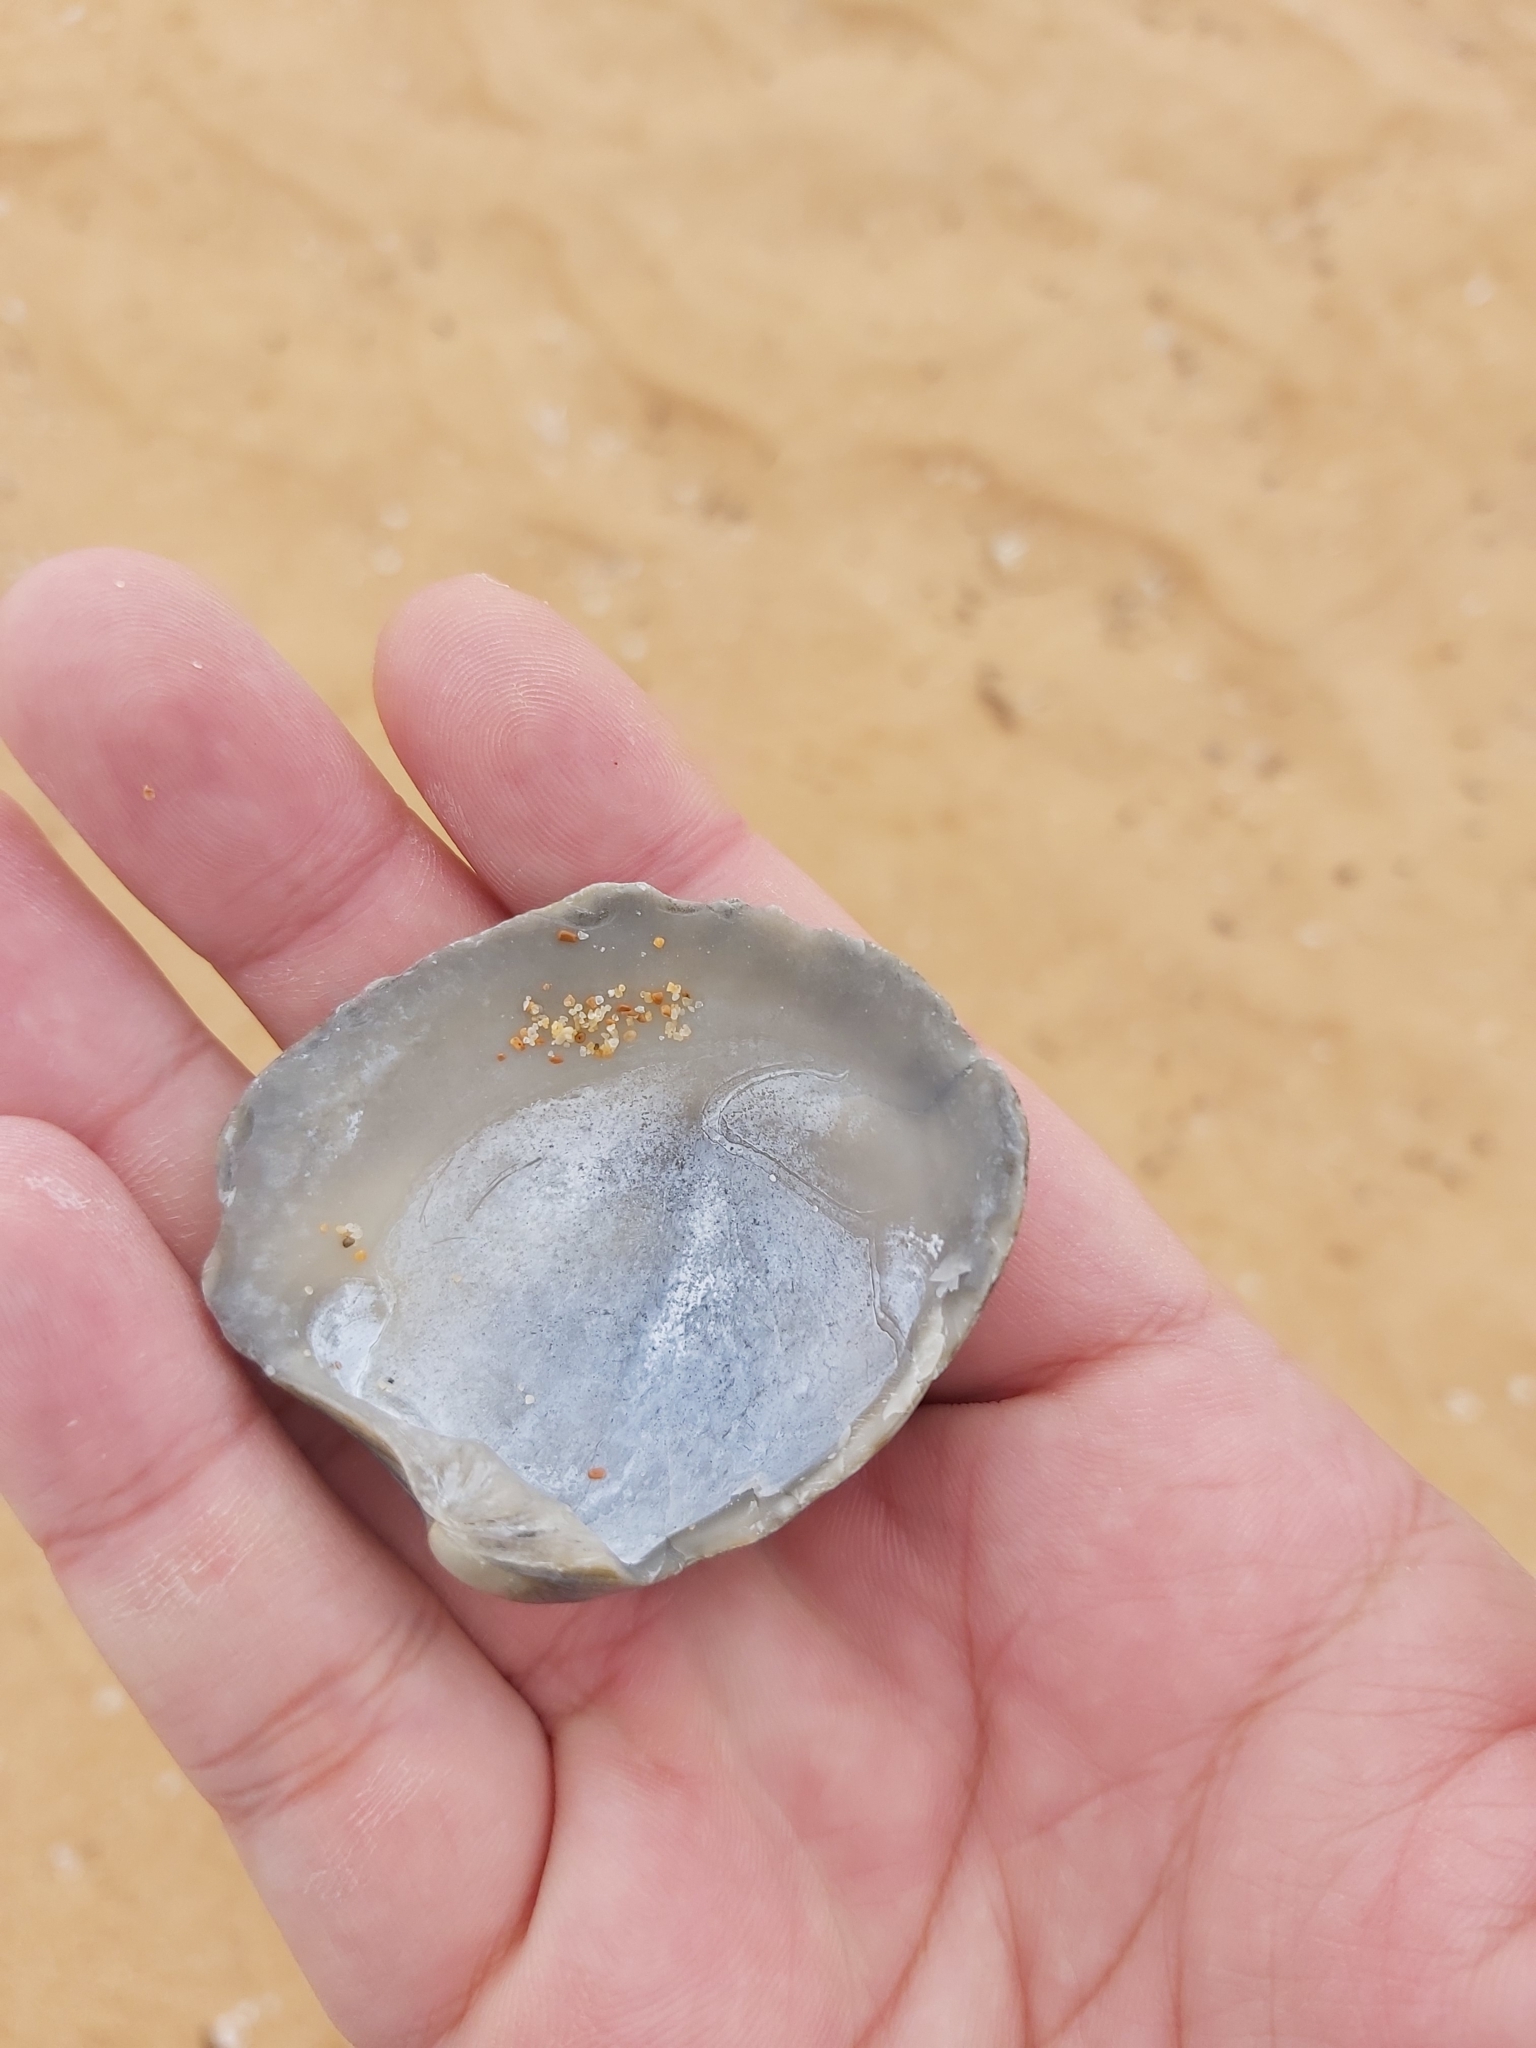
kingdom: Animalia
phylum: Mollusca
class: Bivalvia
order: Venerida
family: Veneridae
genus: Bassina
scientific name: Bassina pachyphylla
